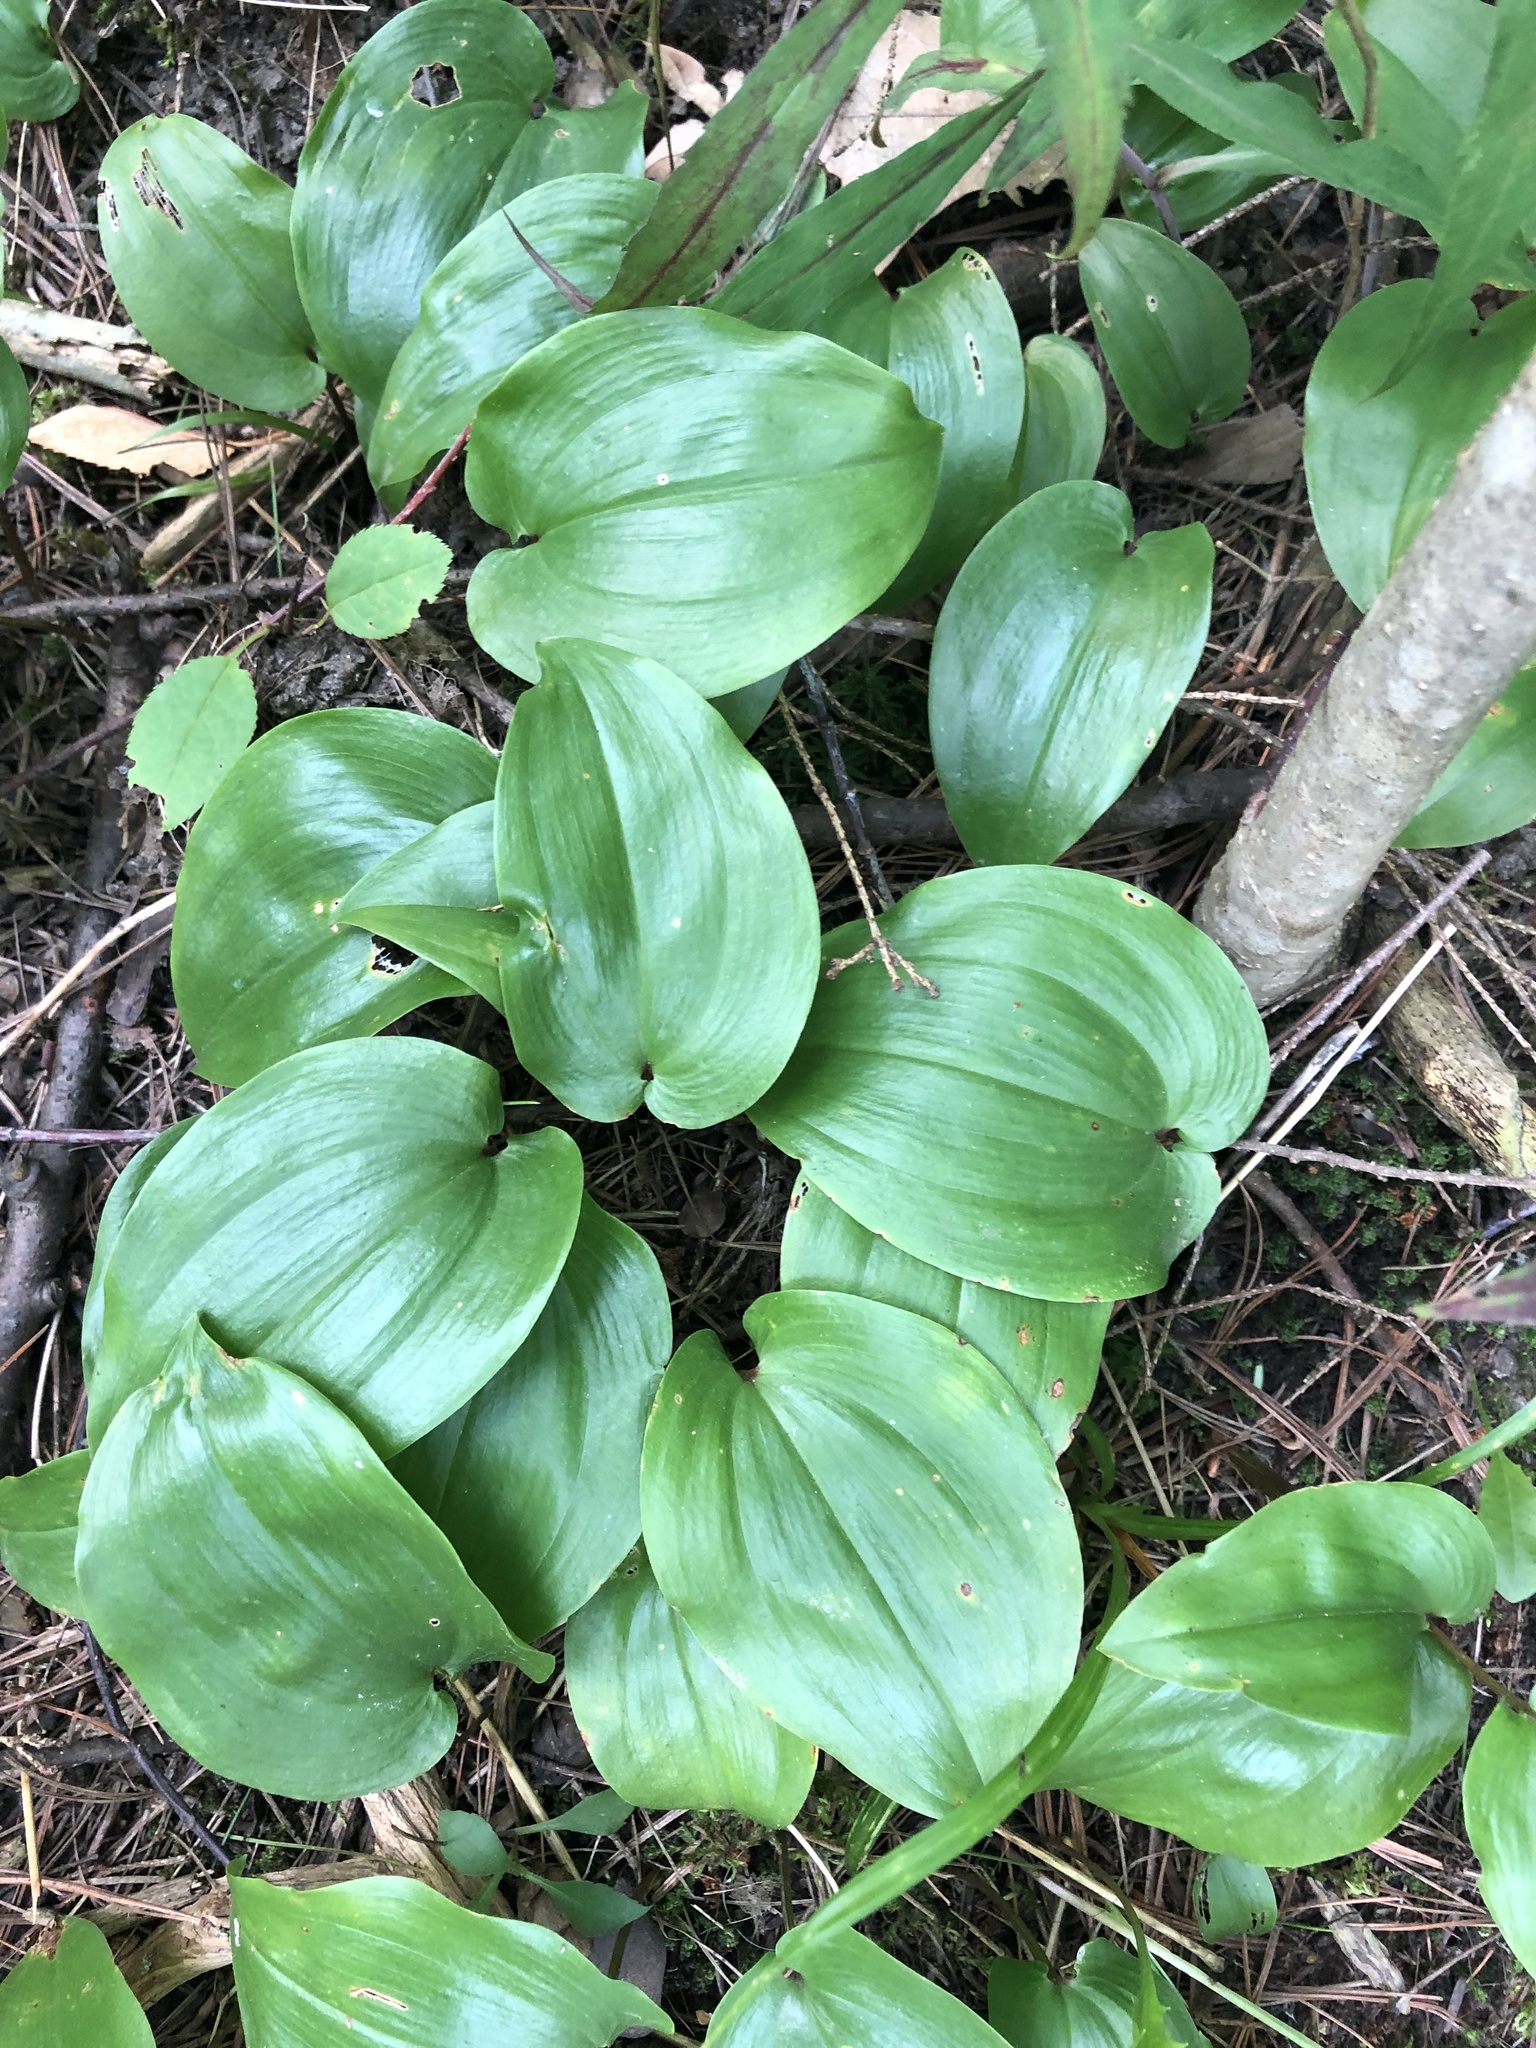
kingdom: Plantae
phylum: Tracheophyta
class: Liliopsida
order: Asparagales
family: Asparagaceae
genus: Maianthemum
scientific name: Maianthemum canadense
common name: False lily-of-the-valley
